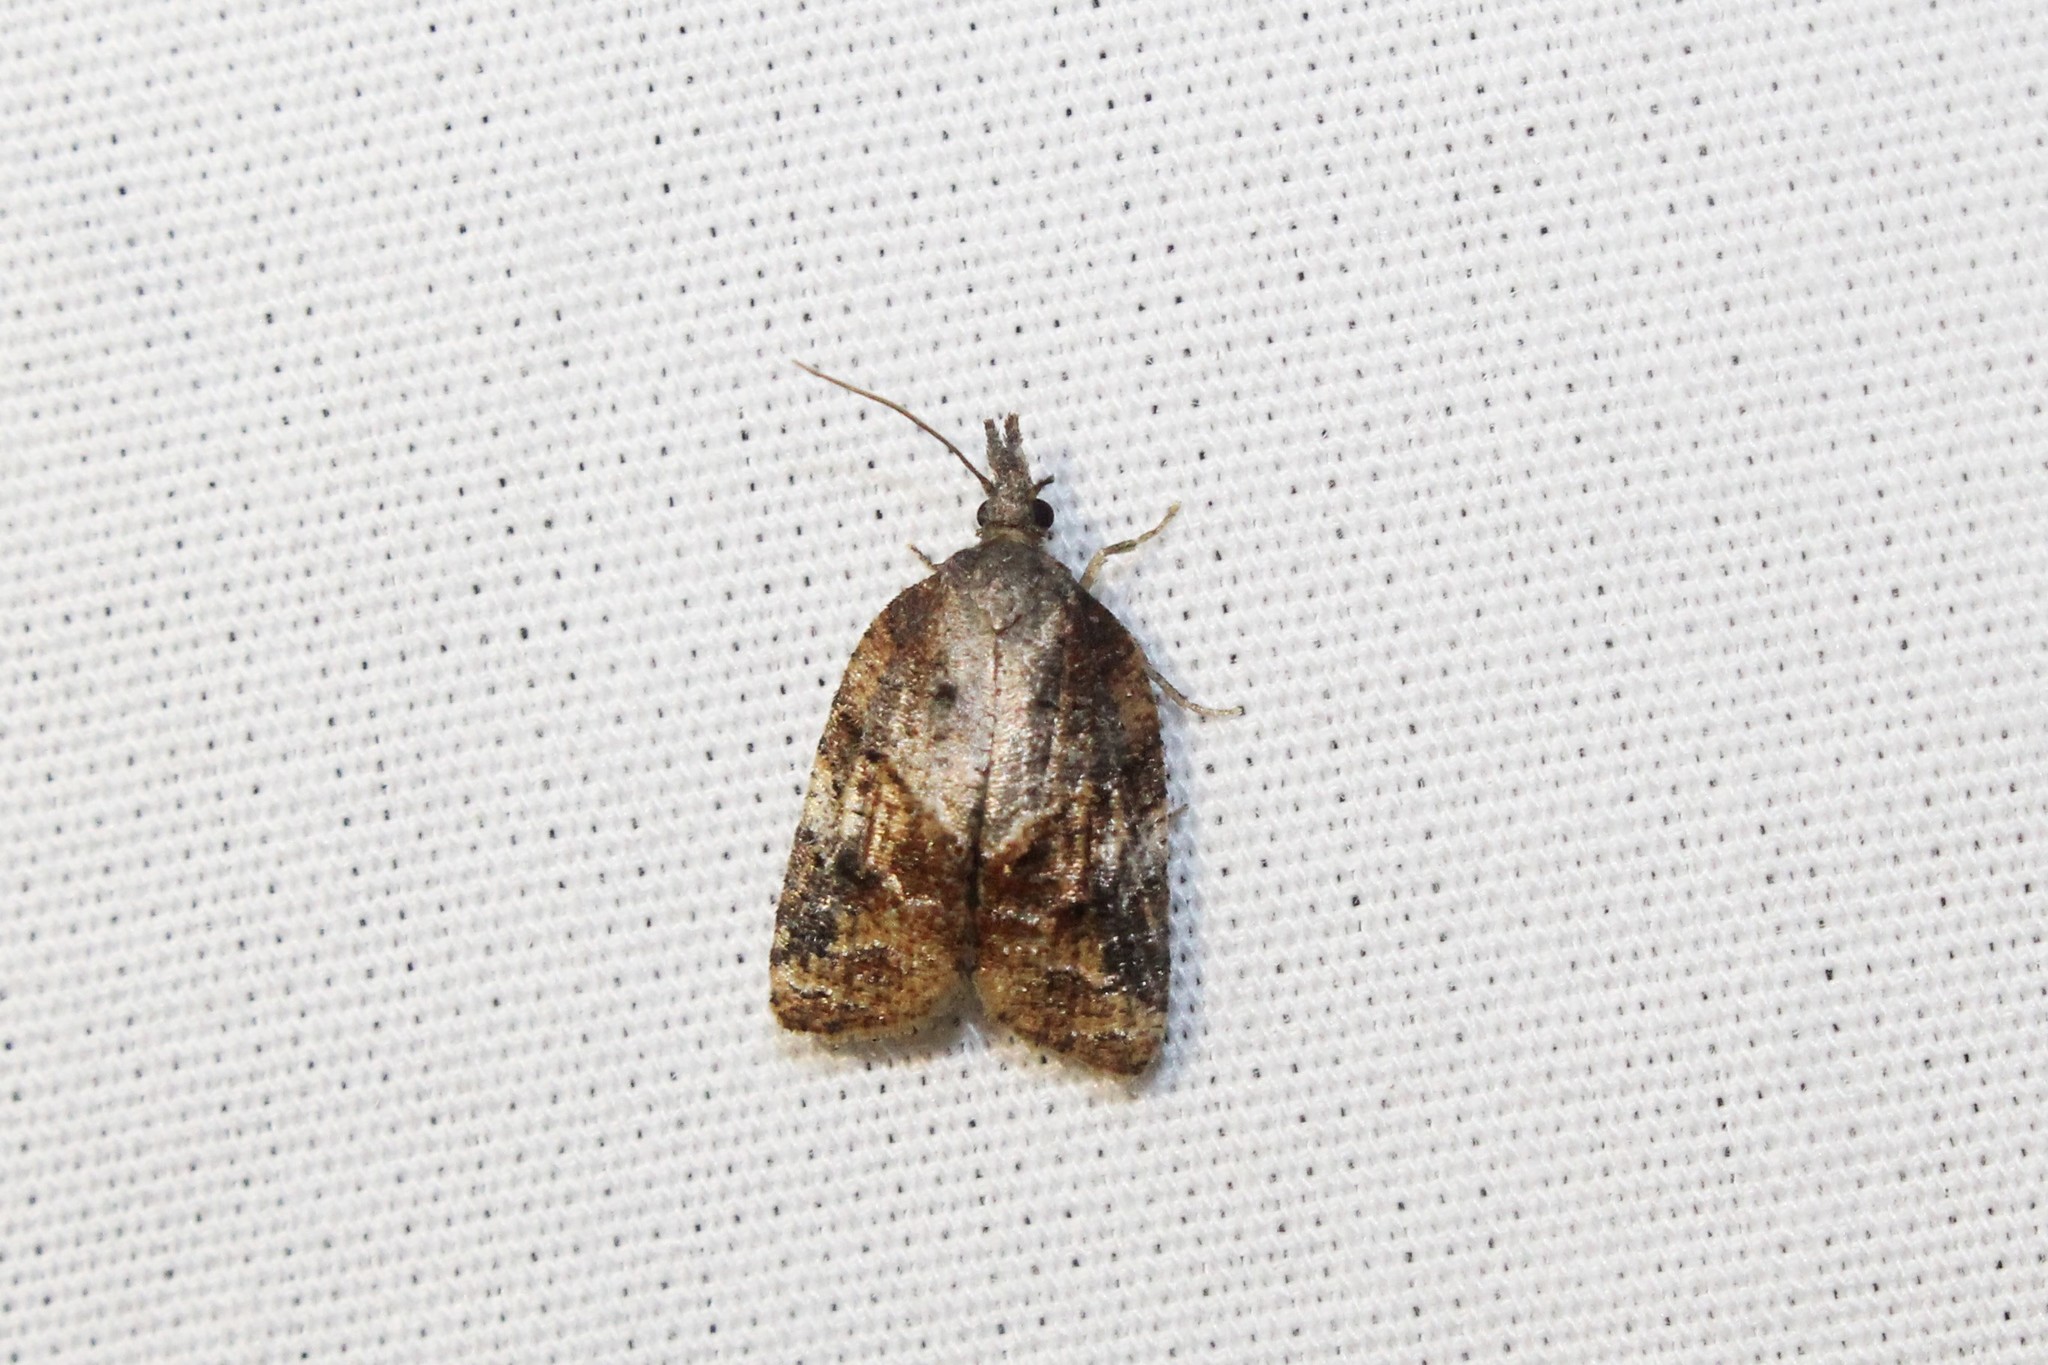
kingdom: Animalia
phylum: Arthropoda
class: Insecta
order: Lepidoptera
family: Tortricidae
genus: Platynota
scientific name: Platynota idaeusalis
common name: Tufted apple bud moth
